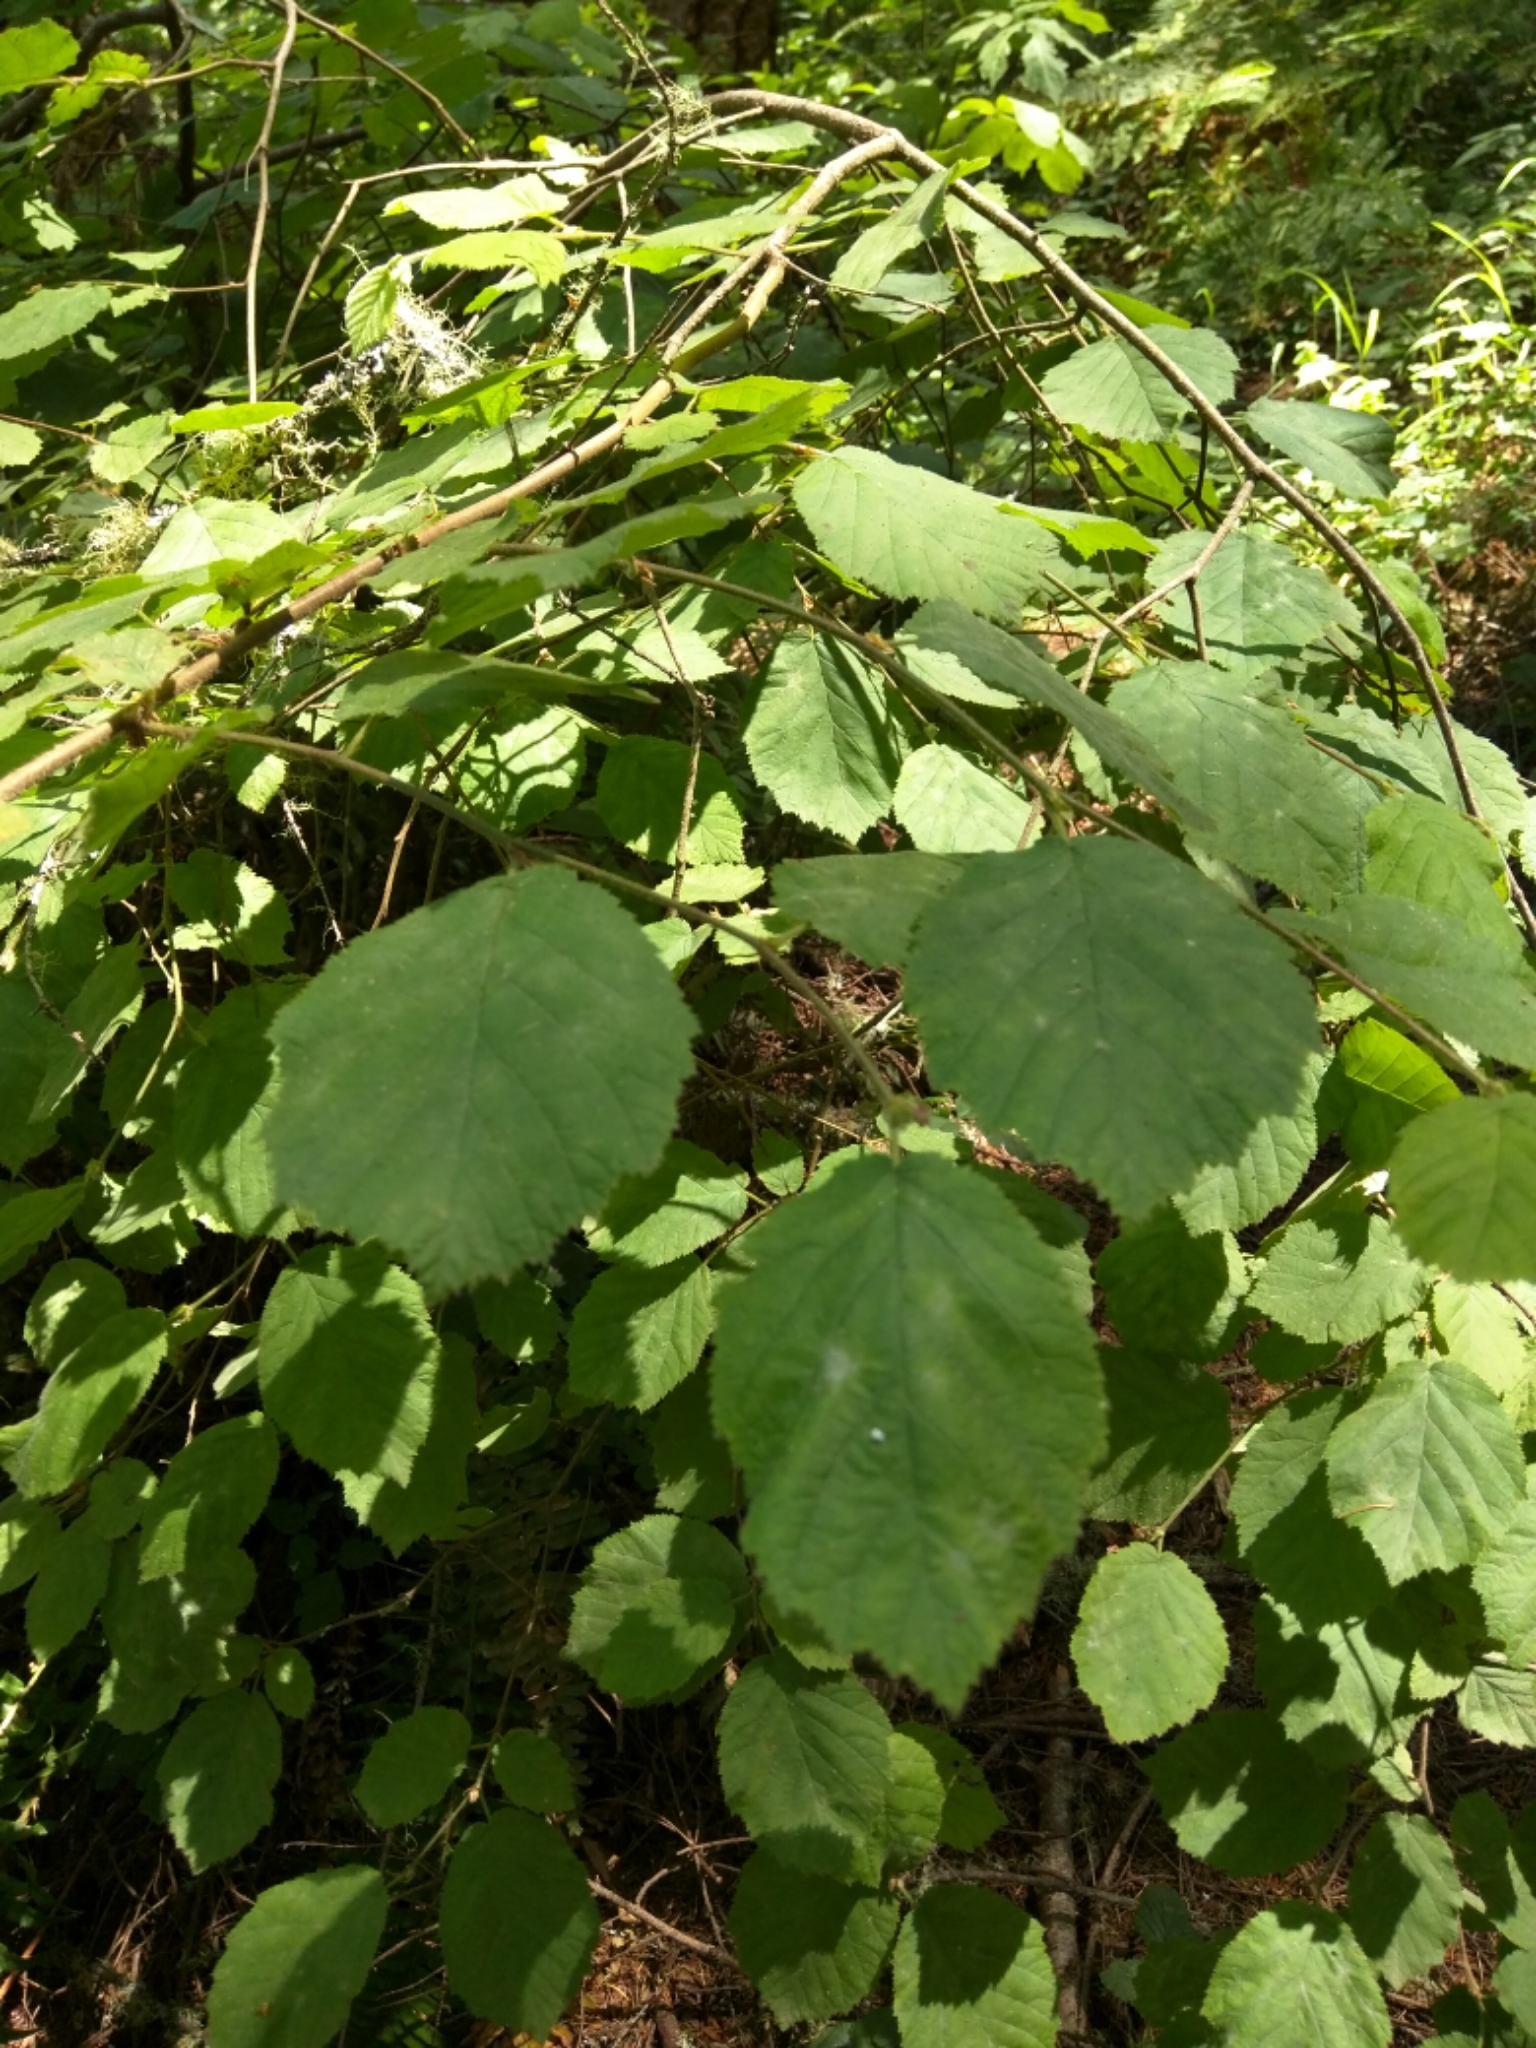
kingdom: Plantae
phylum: Tracheophyta
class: Magnoliopsida
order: Fagales
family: Betulaceae
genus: Corylus
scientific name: Corylus cornuta
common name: Beaked hazel
